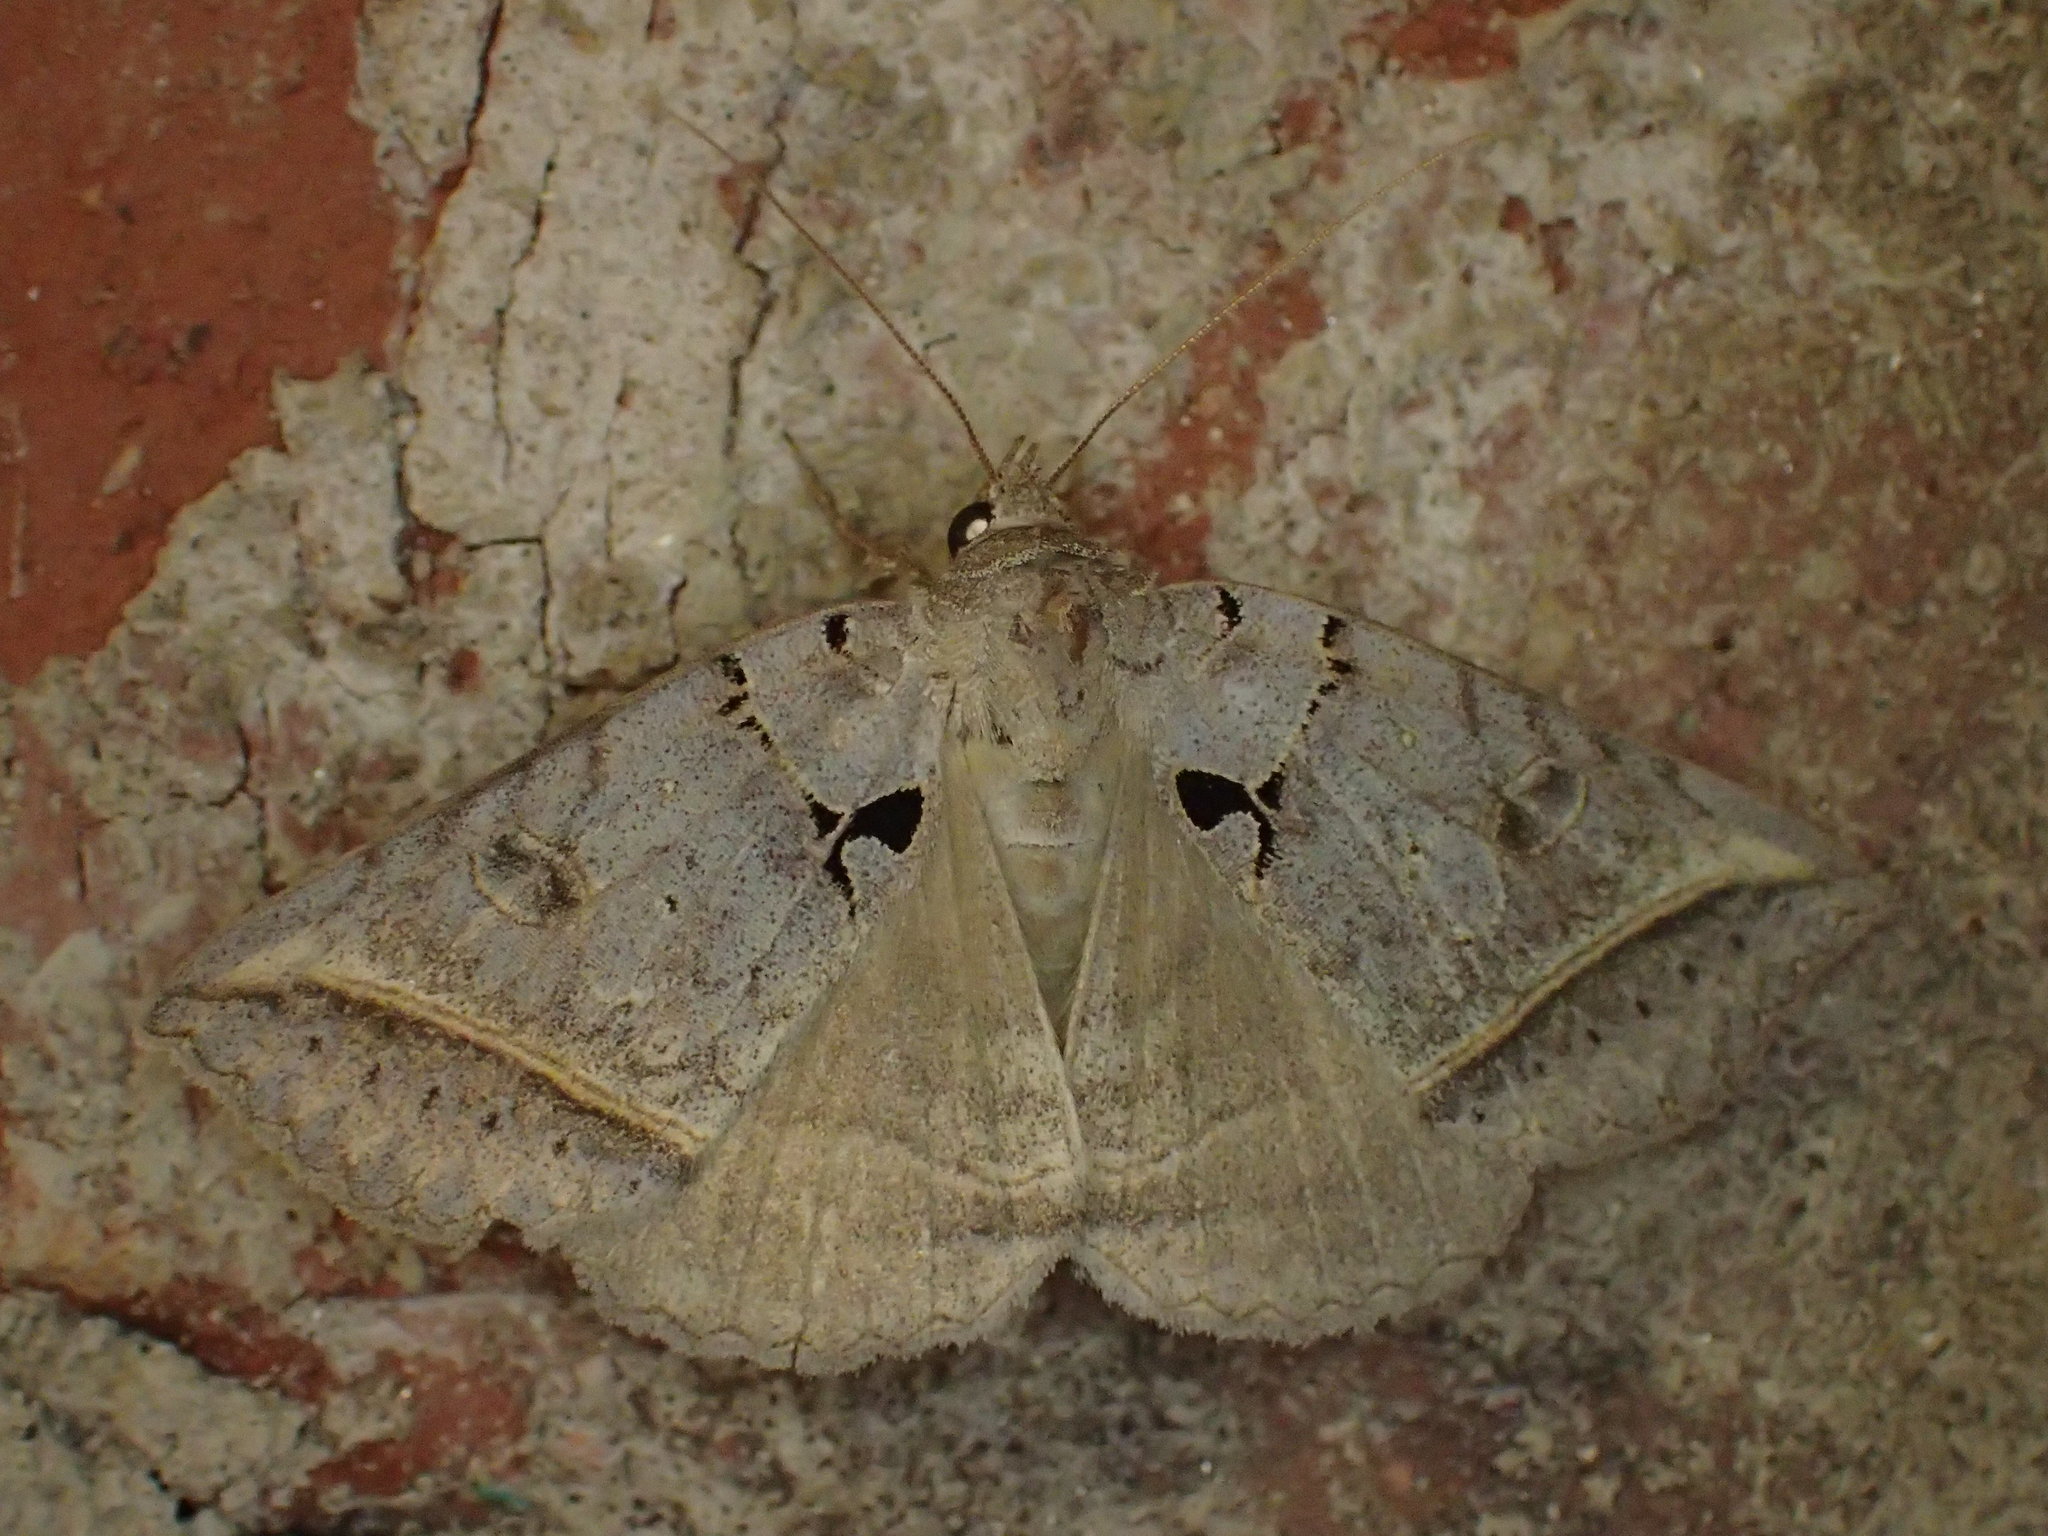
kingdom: Animalia
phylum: Arthropoda
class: Insecta
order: Lepidoptera
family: Erebidae
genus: Celiptera
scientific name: Celiptera frustulum
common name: Black bit moth
